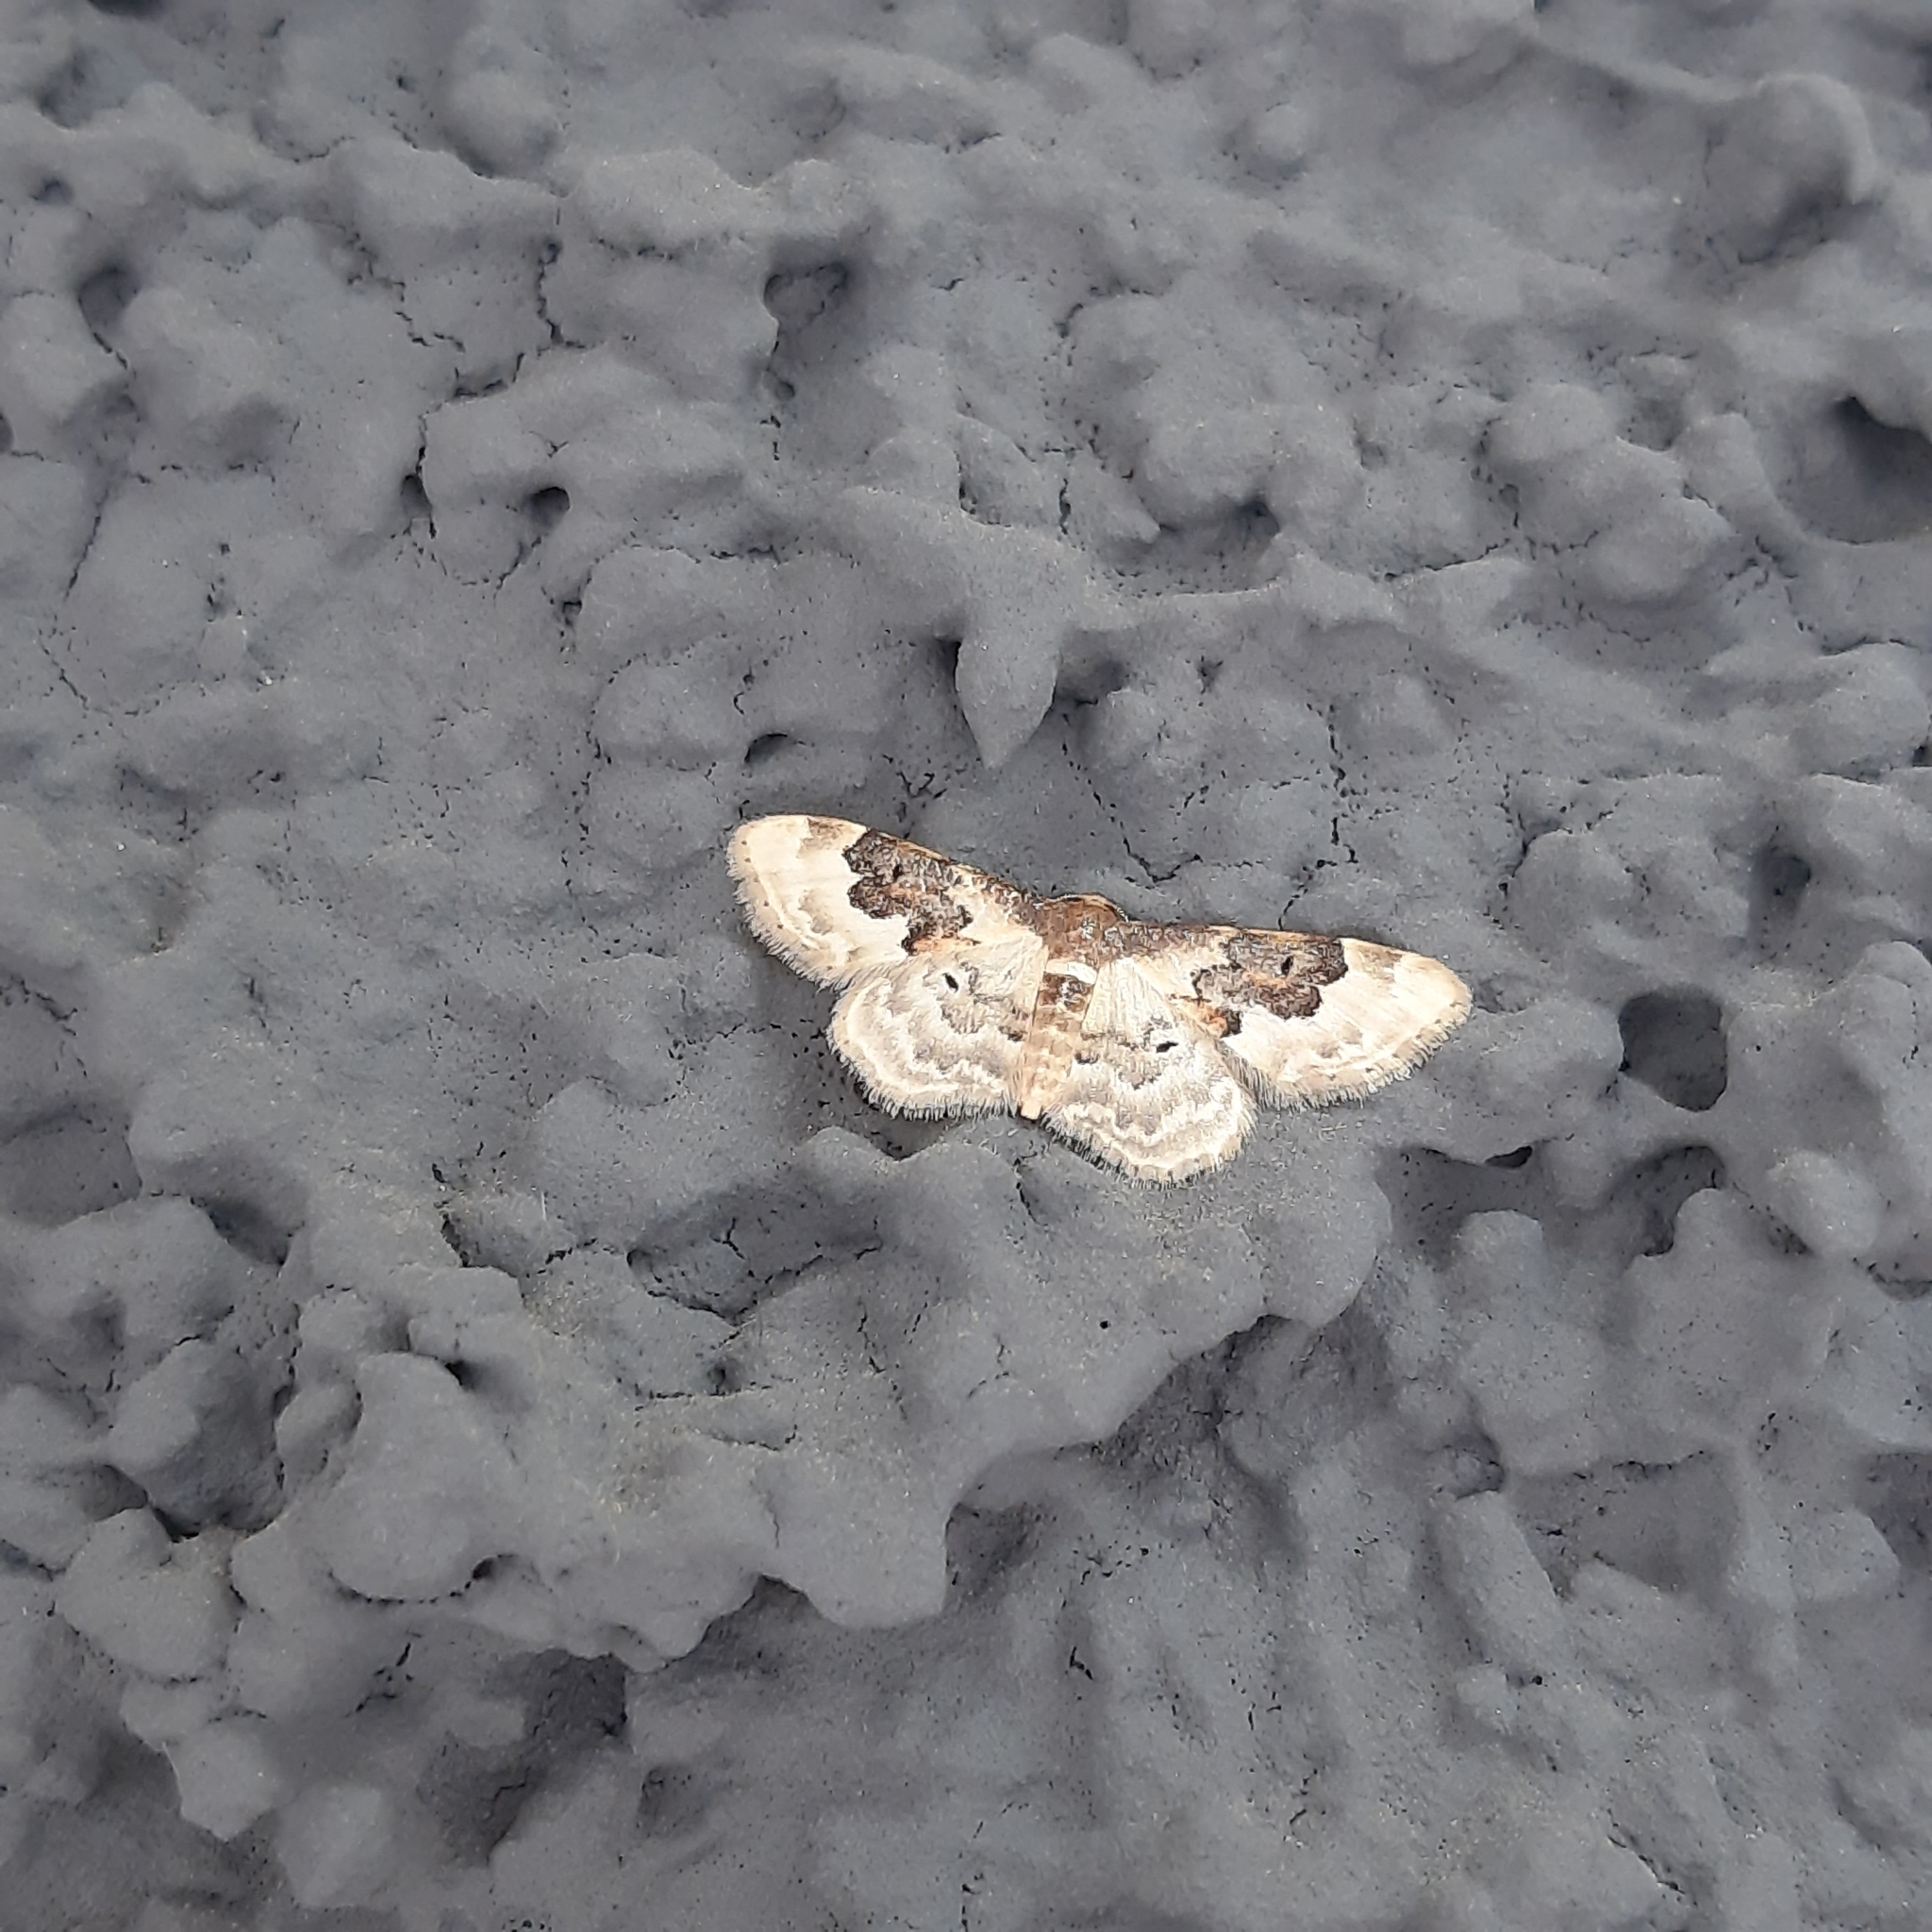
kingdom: Animalia
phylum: Arthropoda
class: Insecta
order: Lepidoptera
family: Geometridae
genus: Idaea
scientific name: Idaea rusticata
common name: Least carpet
